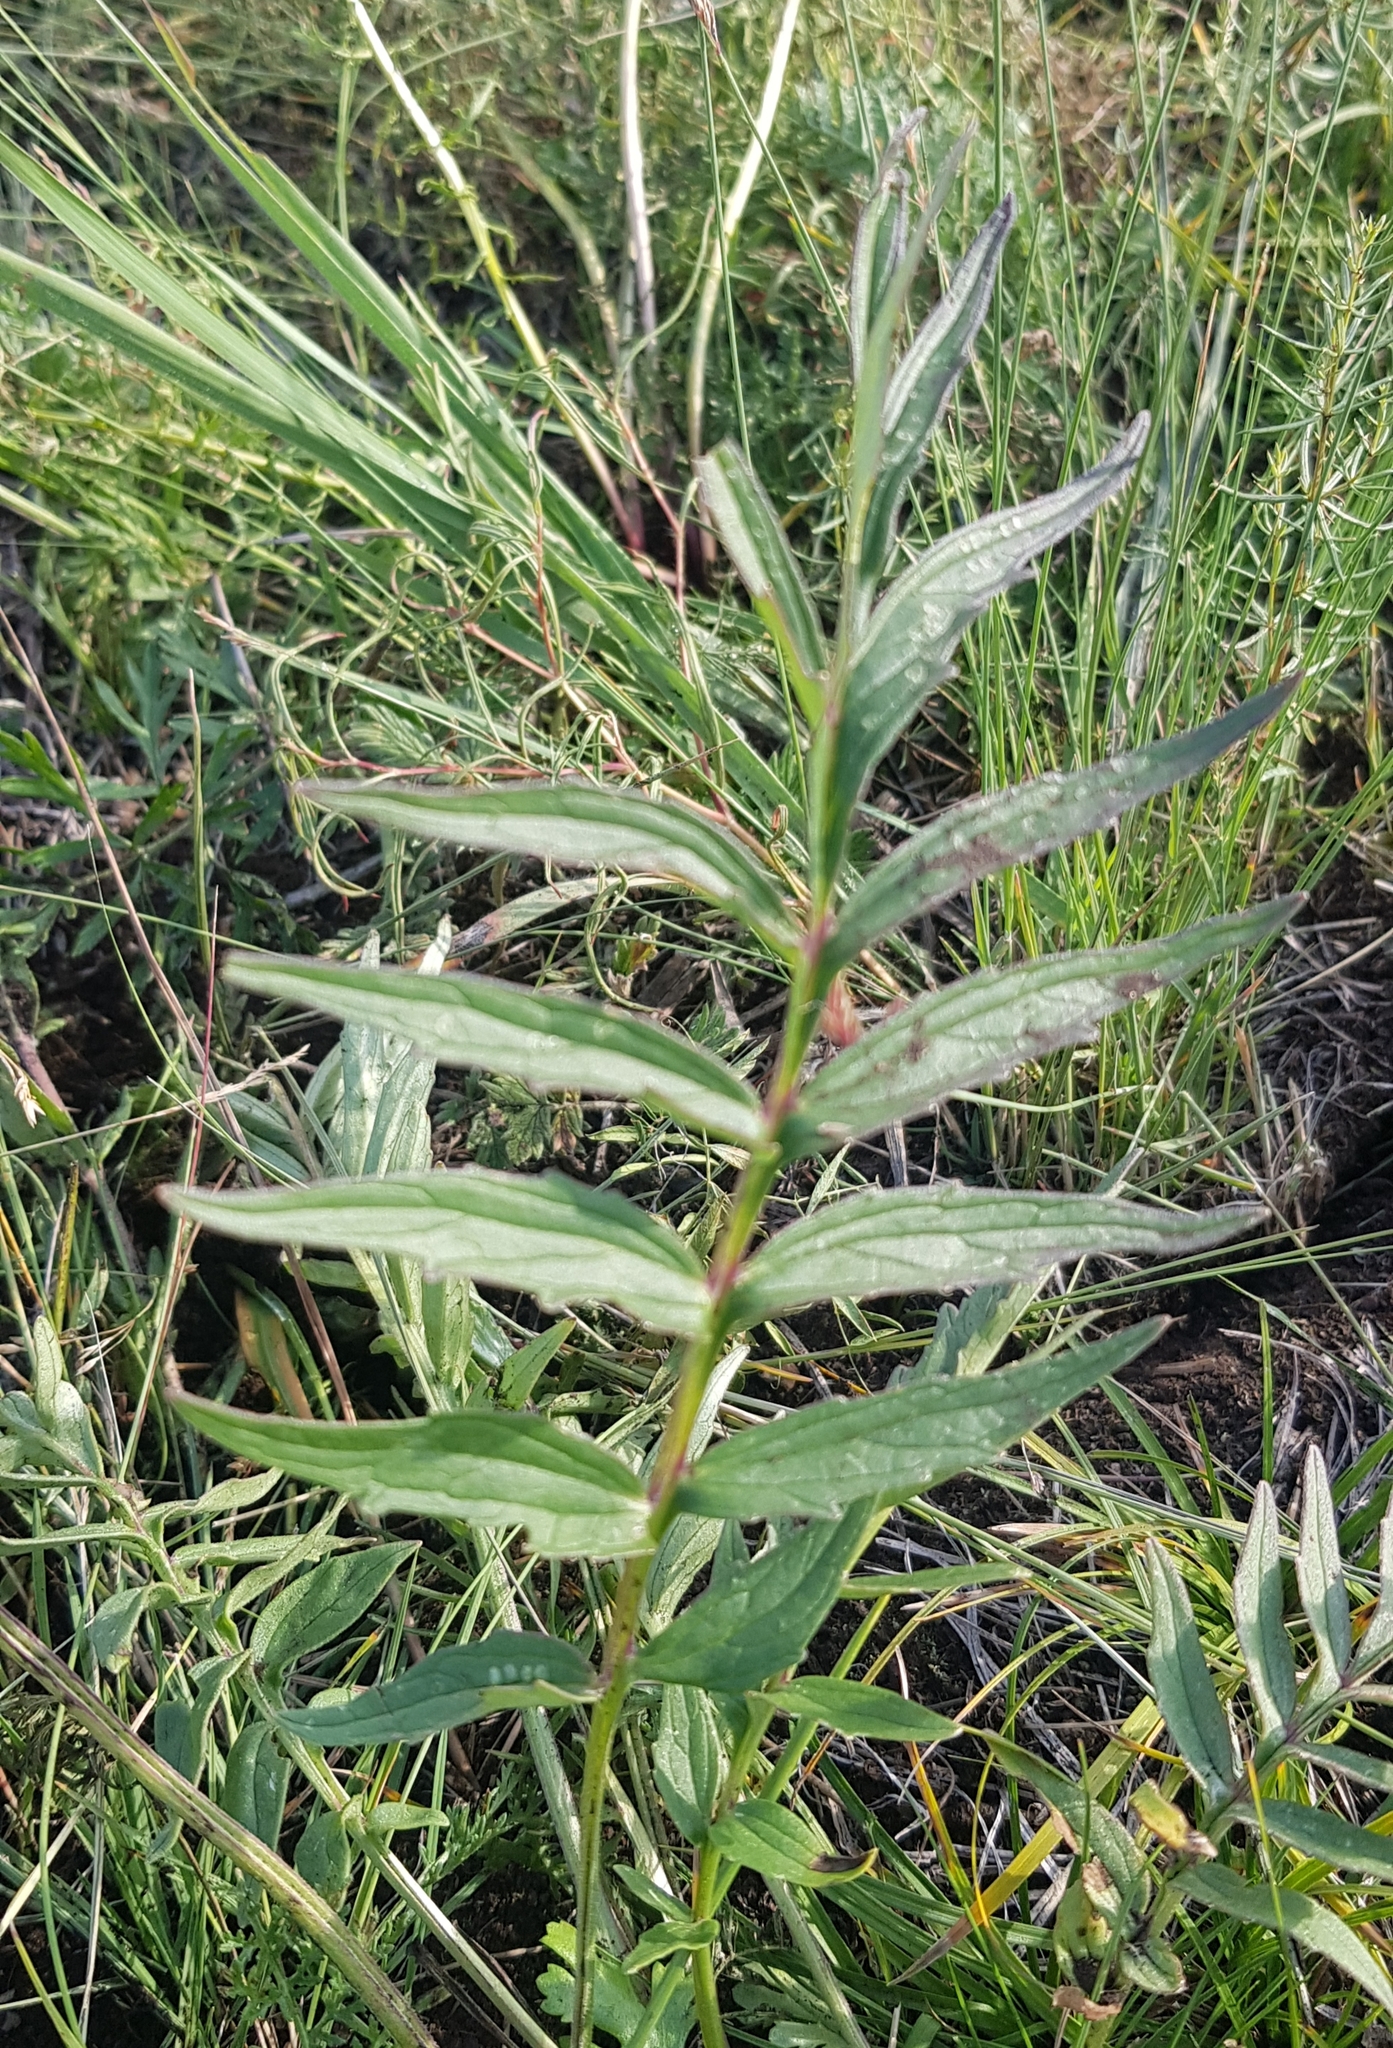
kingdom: Plantae
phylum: Tracheophyta
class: Magnoliopsida
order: Dipsacales
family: Caprifoliaceae
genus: Valeriana
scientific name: Valeriana officinalis
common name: Common valerian
